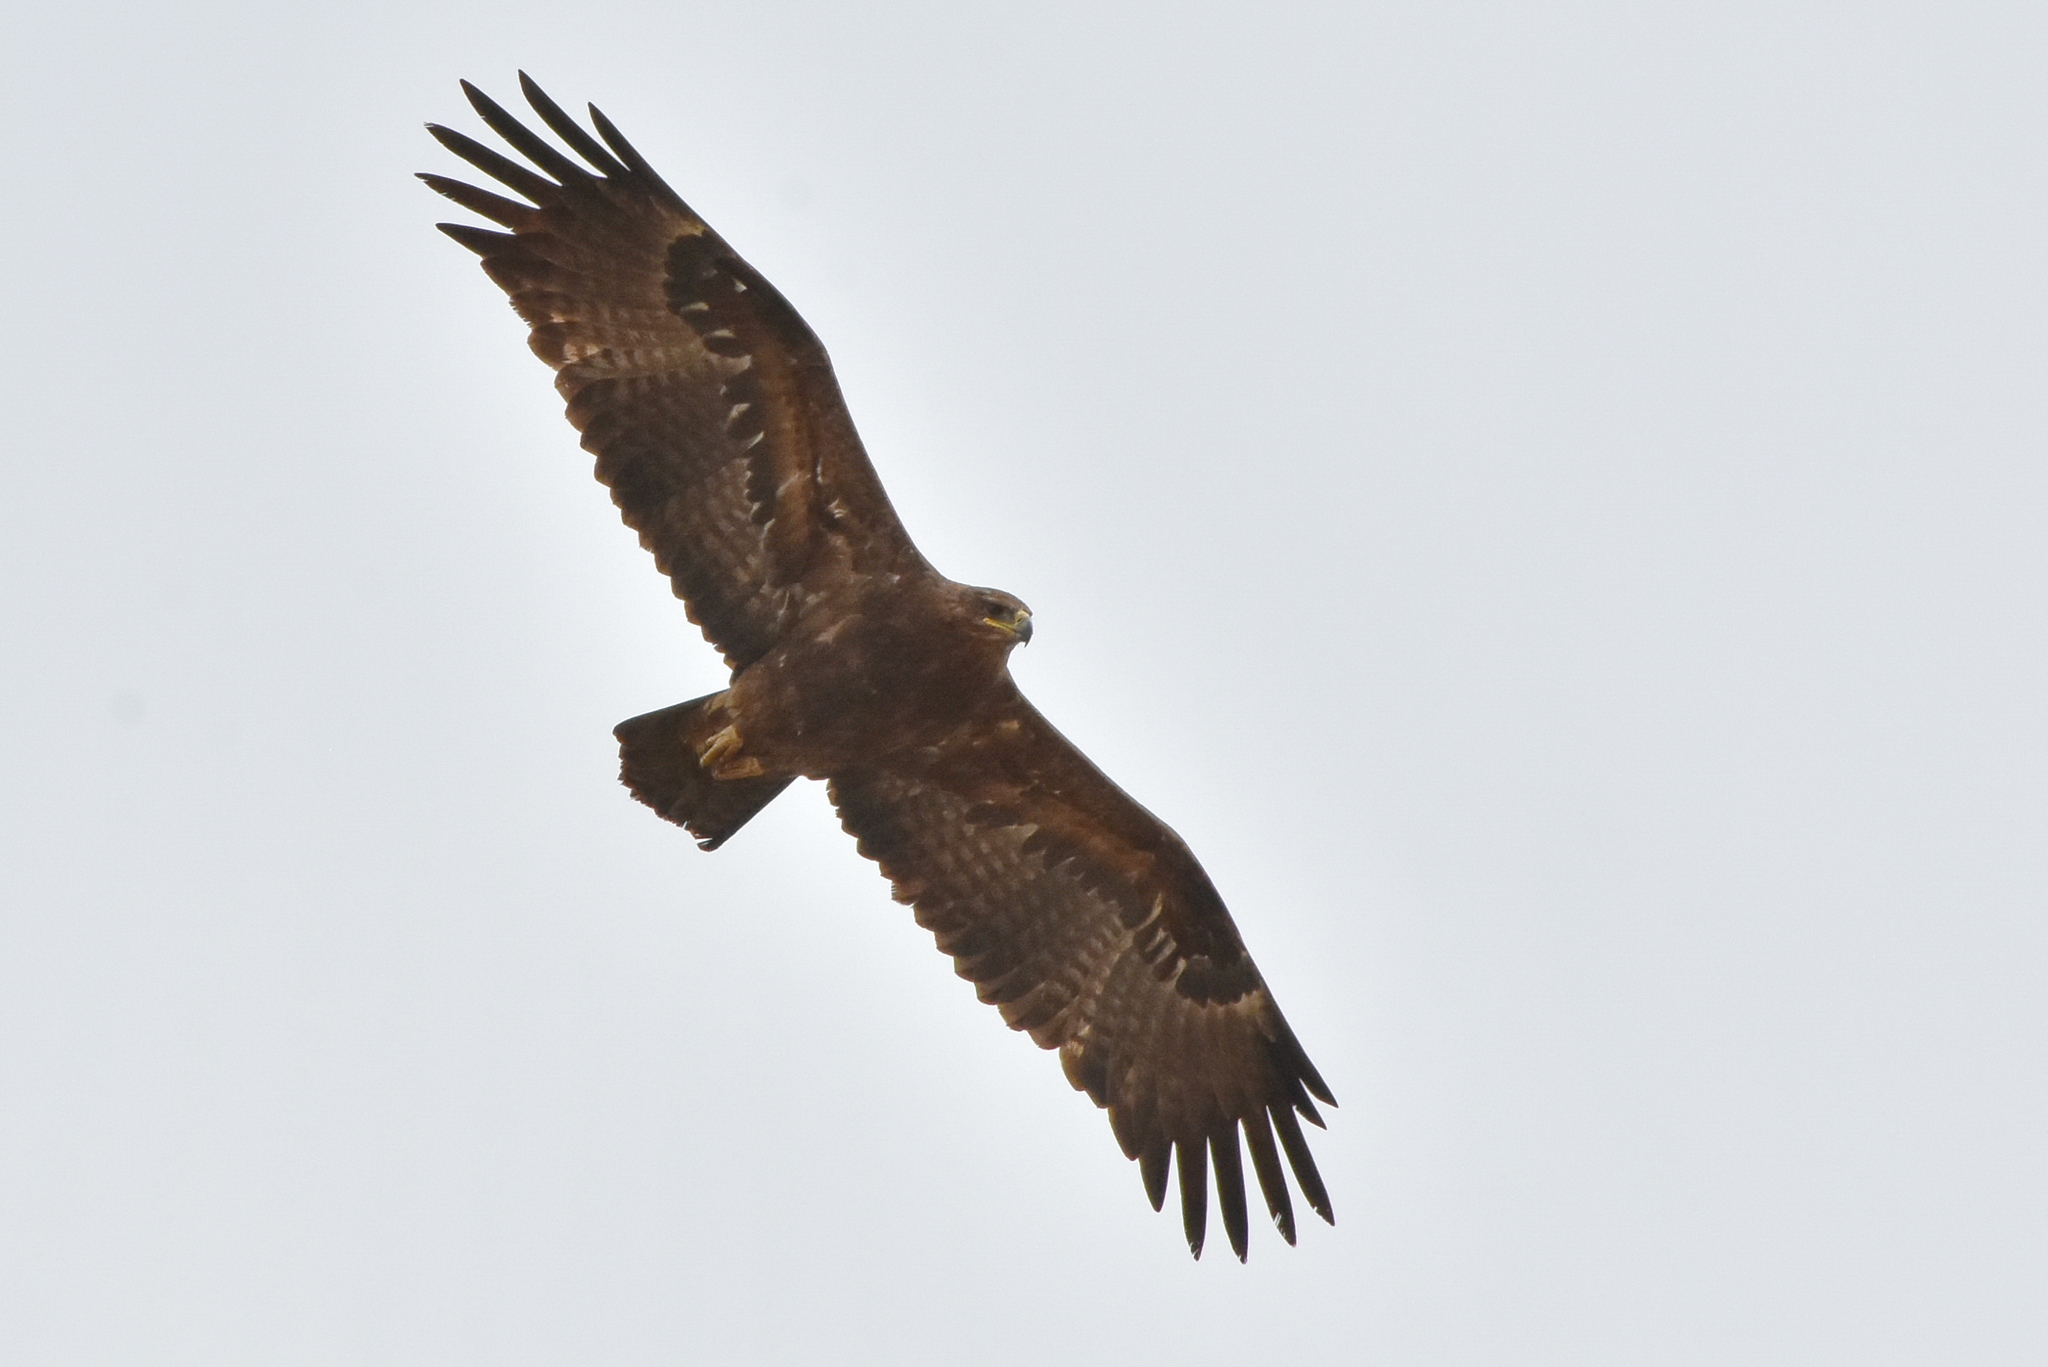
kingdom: Animalia
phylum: Chordata
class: Aves
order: Accipitriformes
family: Accipitridae
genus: Aquila
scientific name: Aquila nipalensis
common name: Steppe eagle
